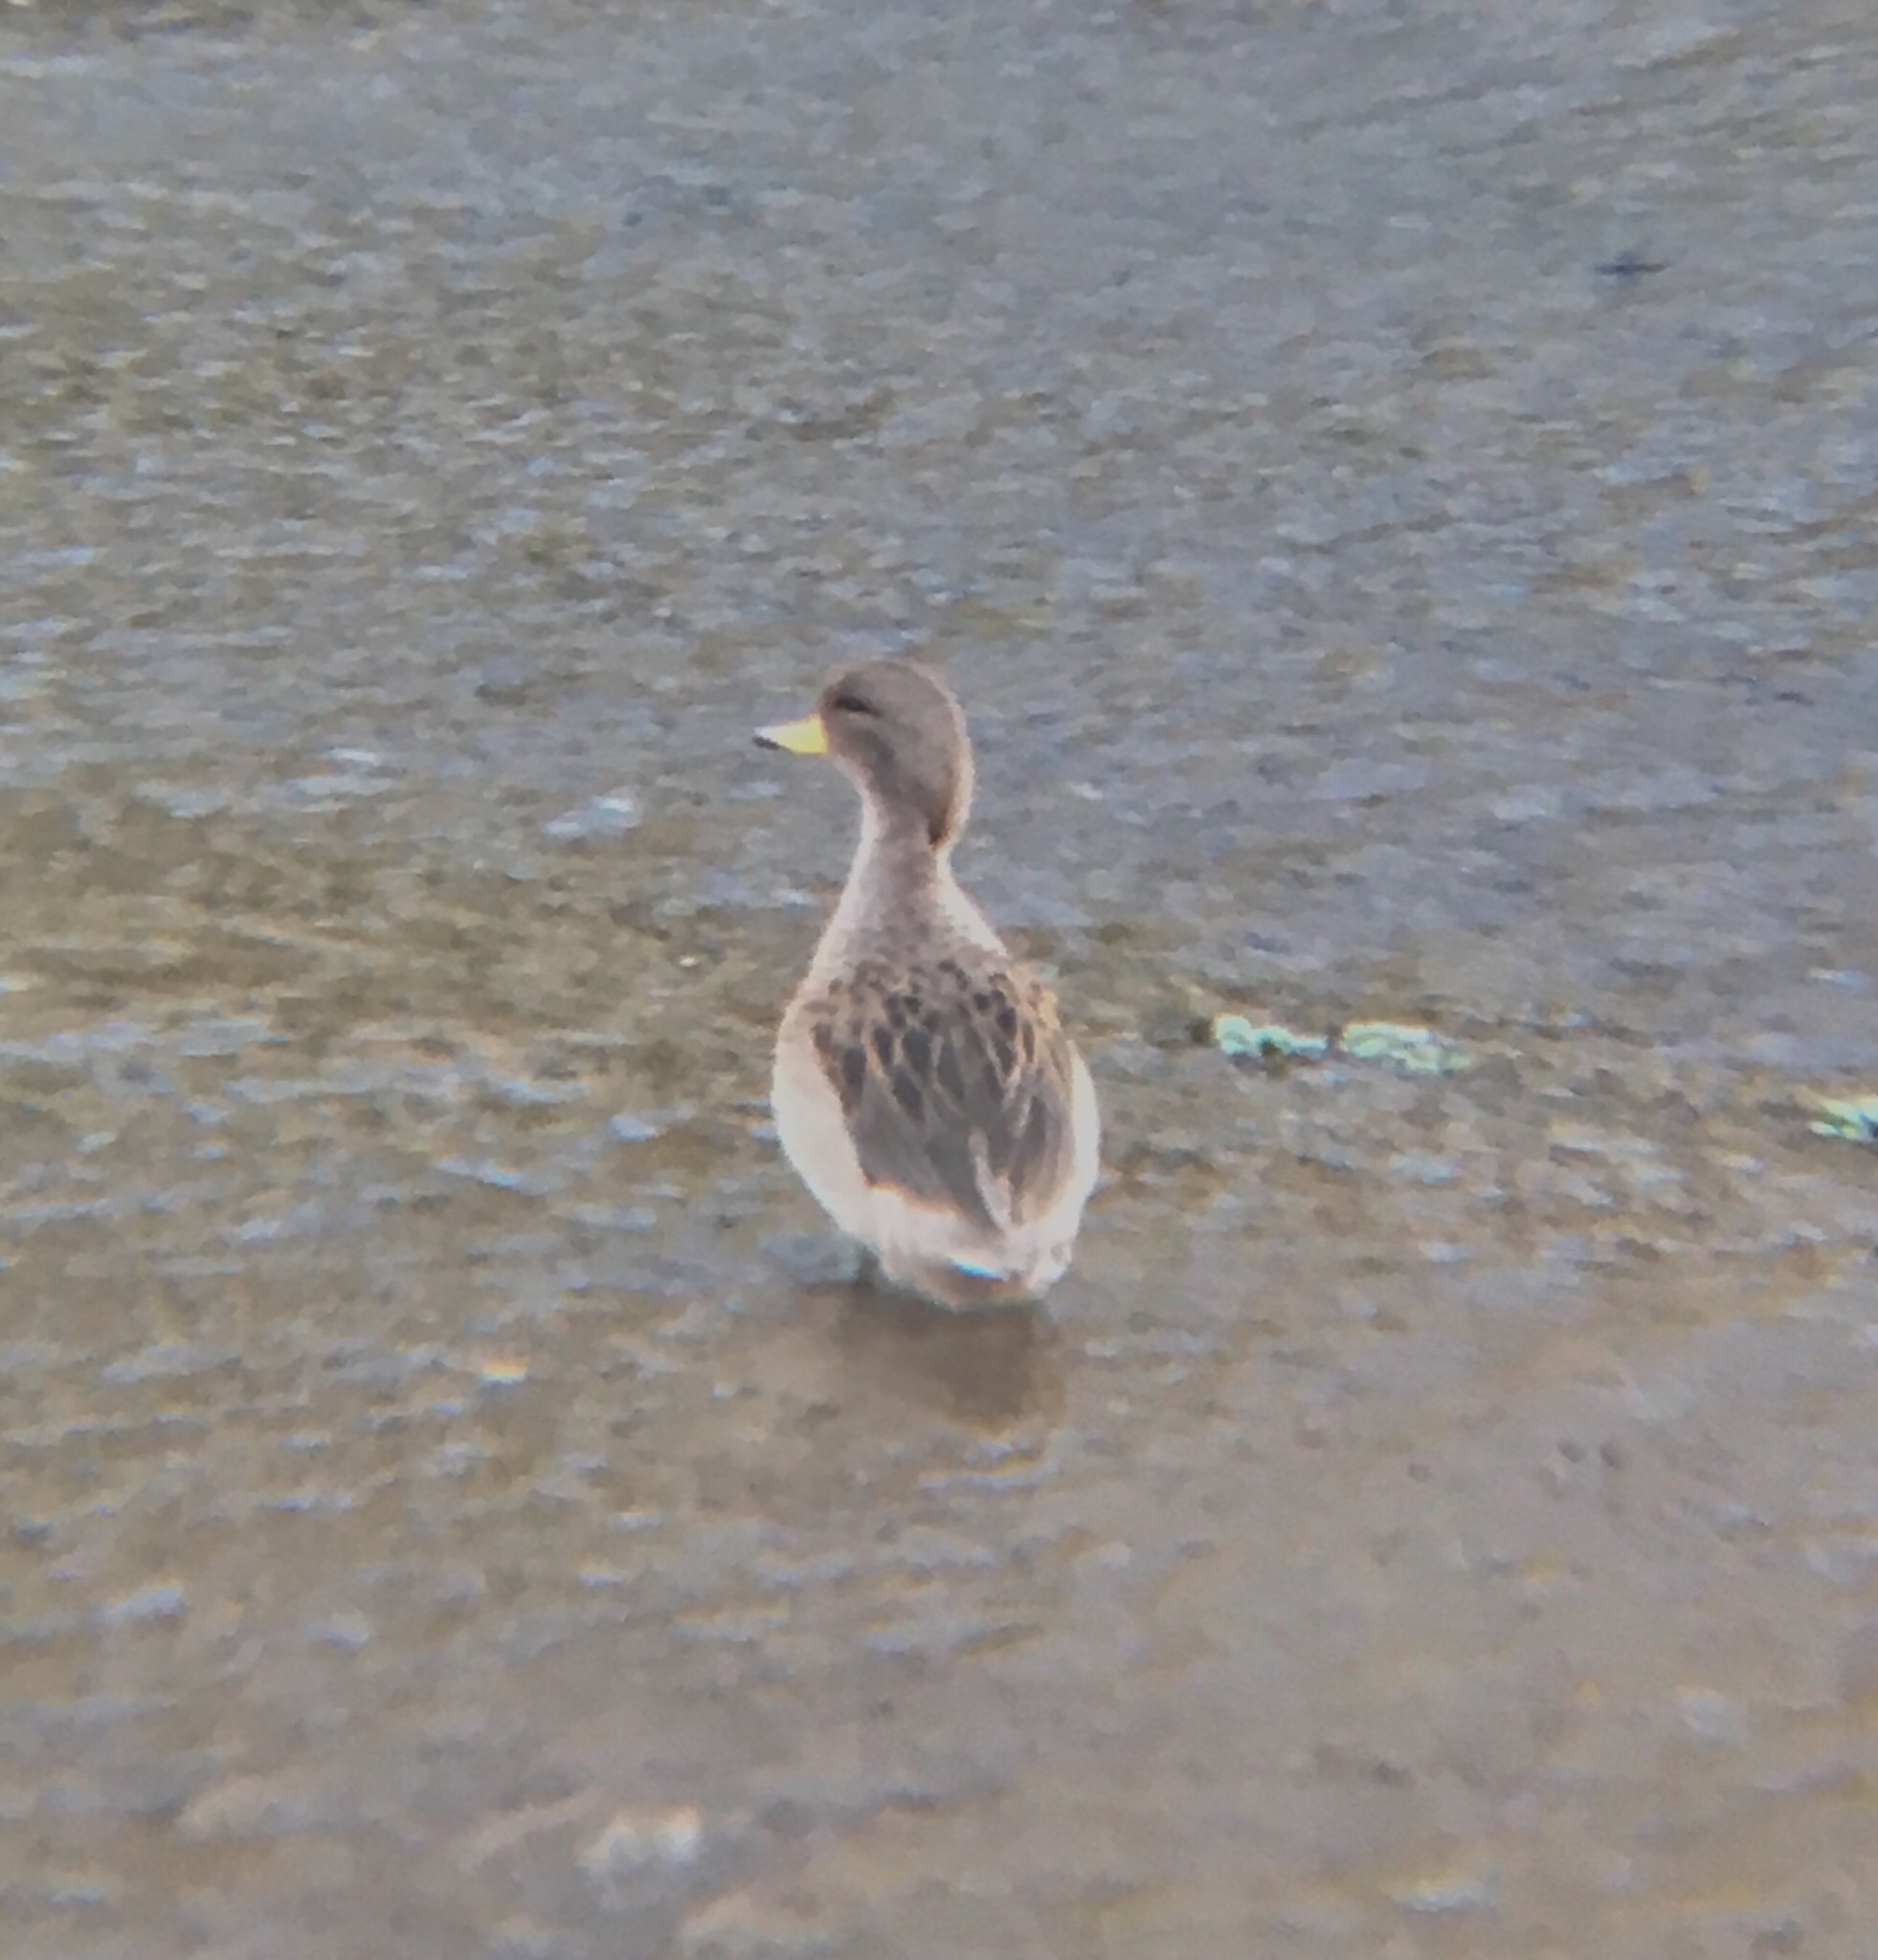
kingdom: Animalia
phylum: Chordata
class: Aves
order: Anseriformes
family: Anatidae
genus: Anas
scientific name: Anas flavirostris
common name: Yellow-billed teal
